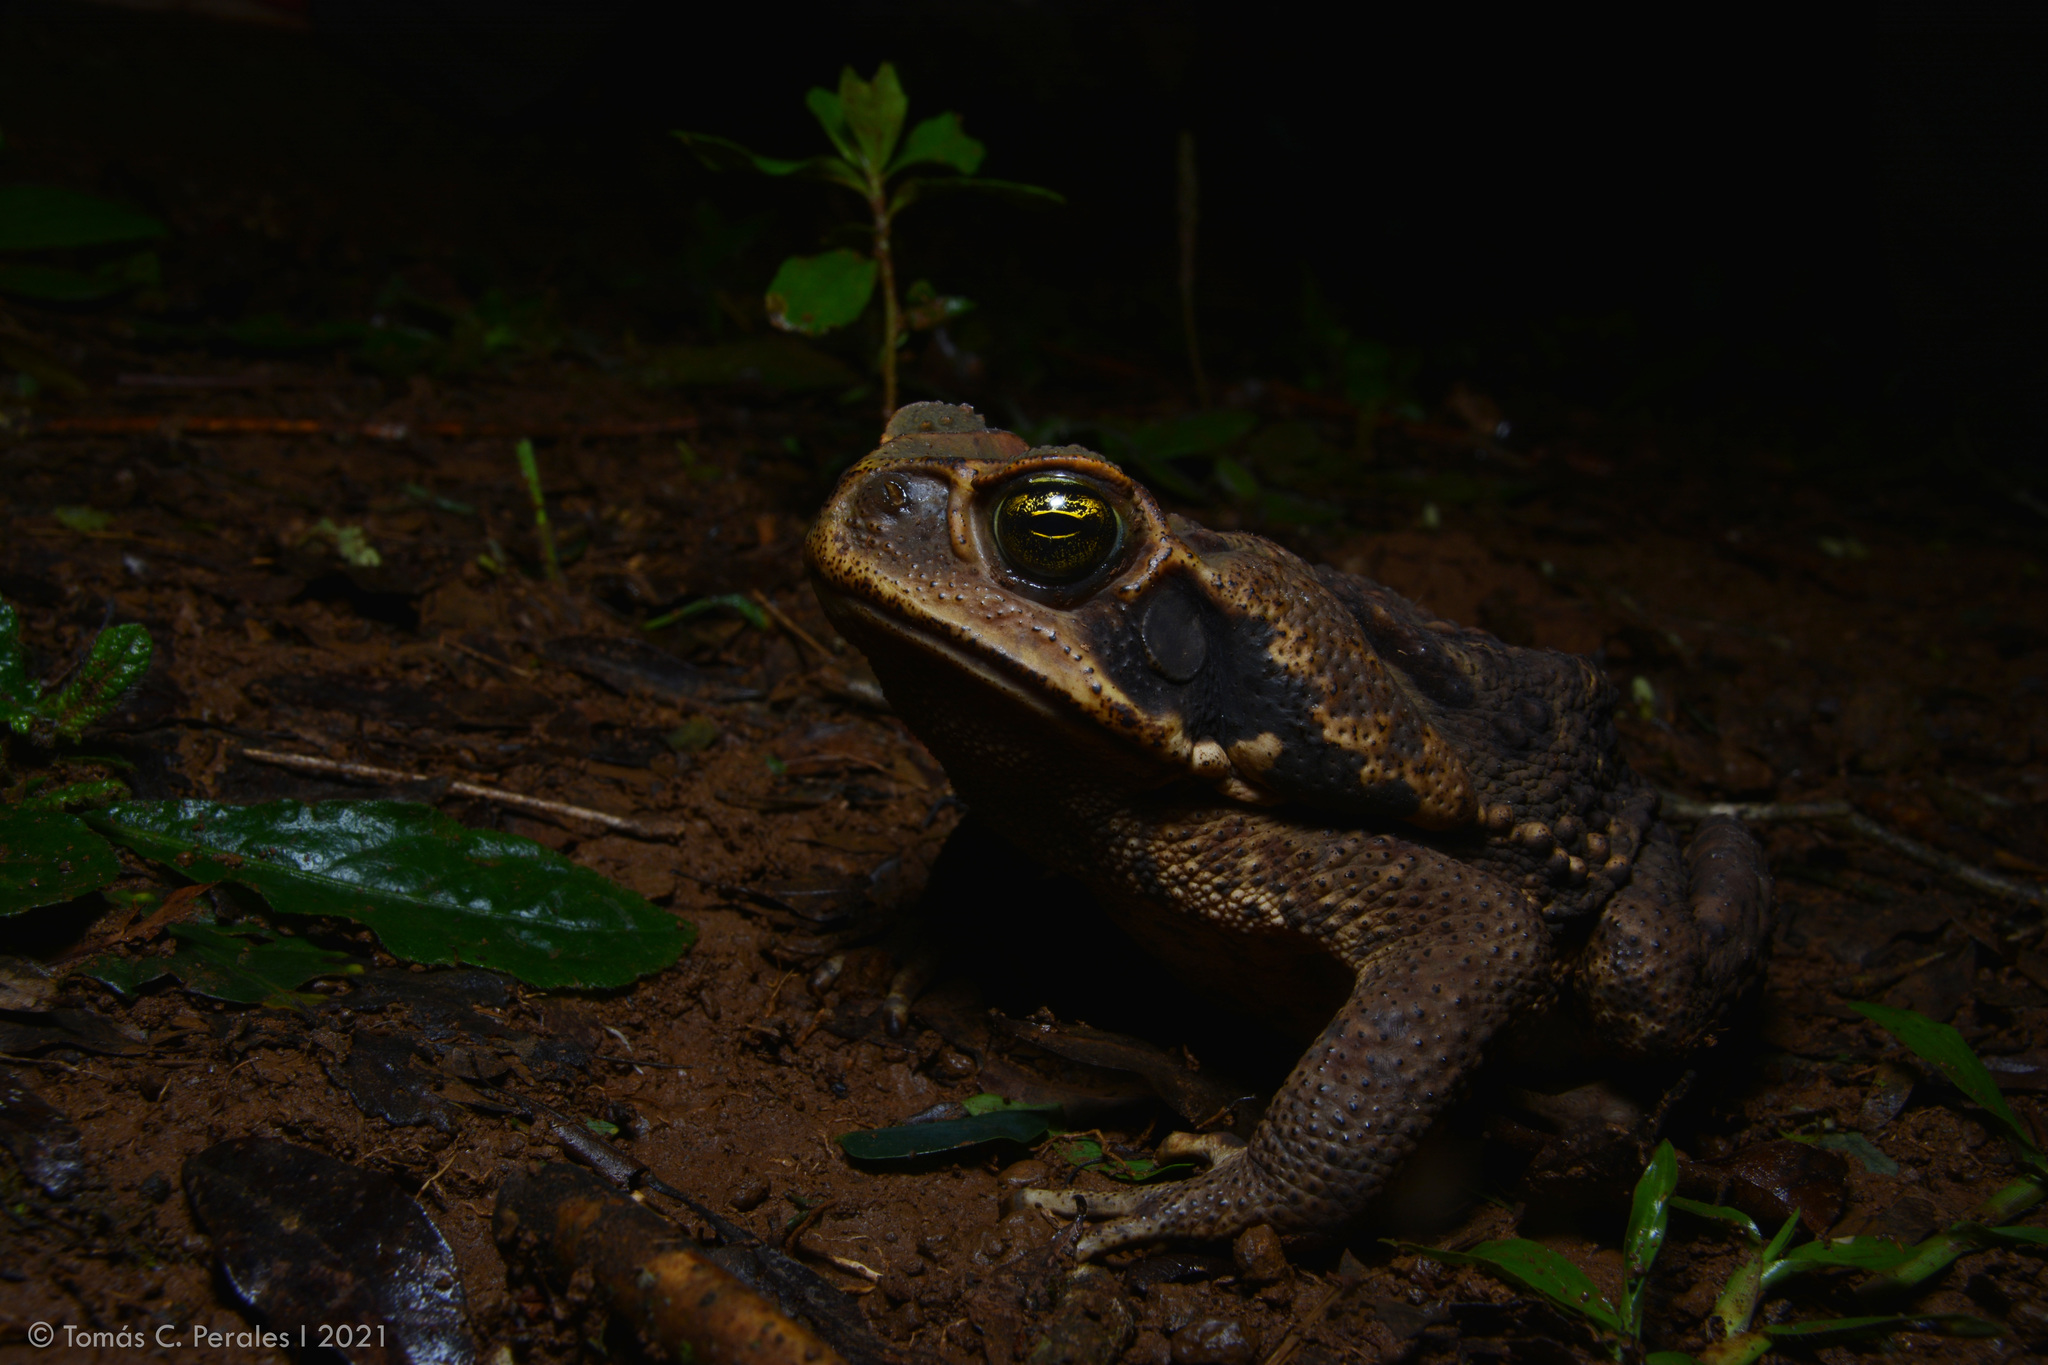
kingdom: Animalia
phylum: Chordata
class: Amphibia
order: Anura
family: Bufonidae
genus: Rhinella
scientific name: Rhinella diptycha
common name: Cope's toad
